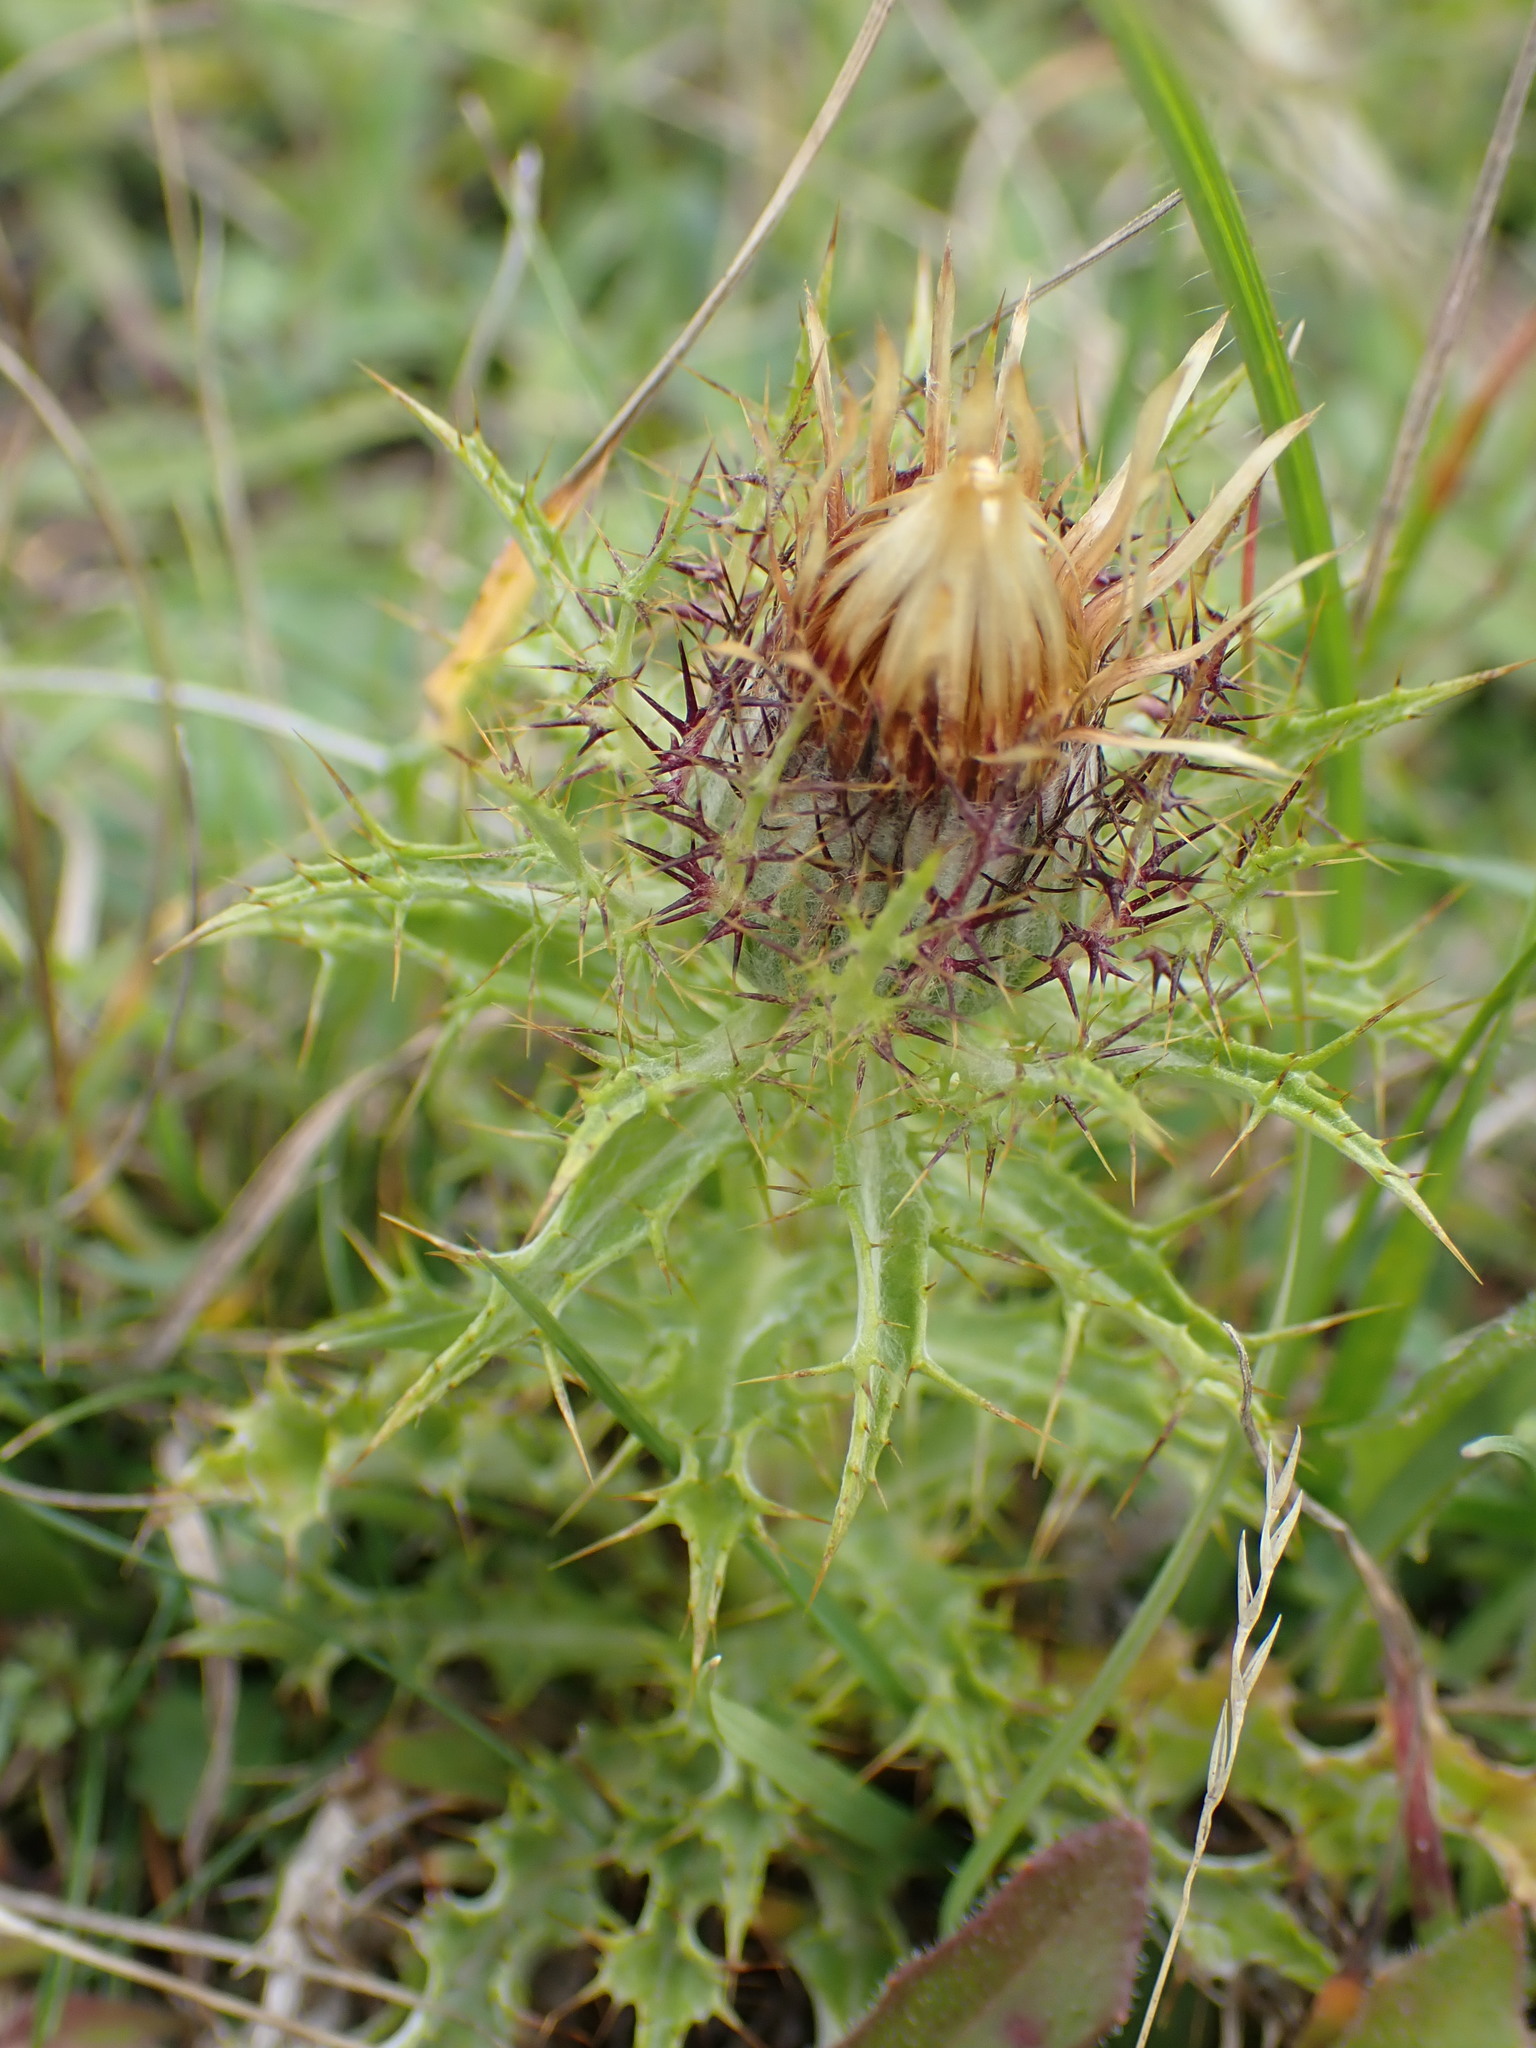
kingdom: Plantae
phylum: Tracheophyta
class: Magnoliopsida
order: Asterales
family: Asteraceae
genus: Carlina
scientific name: Carlina vulgaris
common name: Carline thistle
